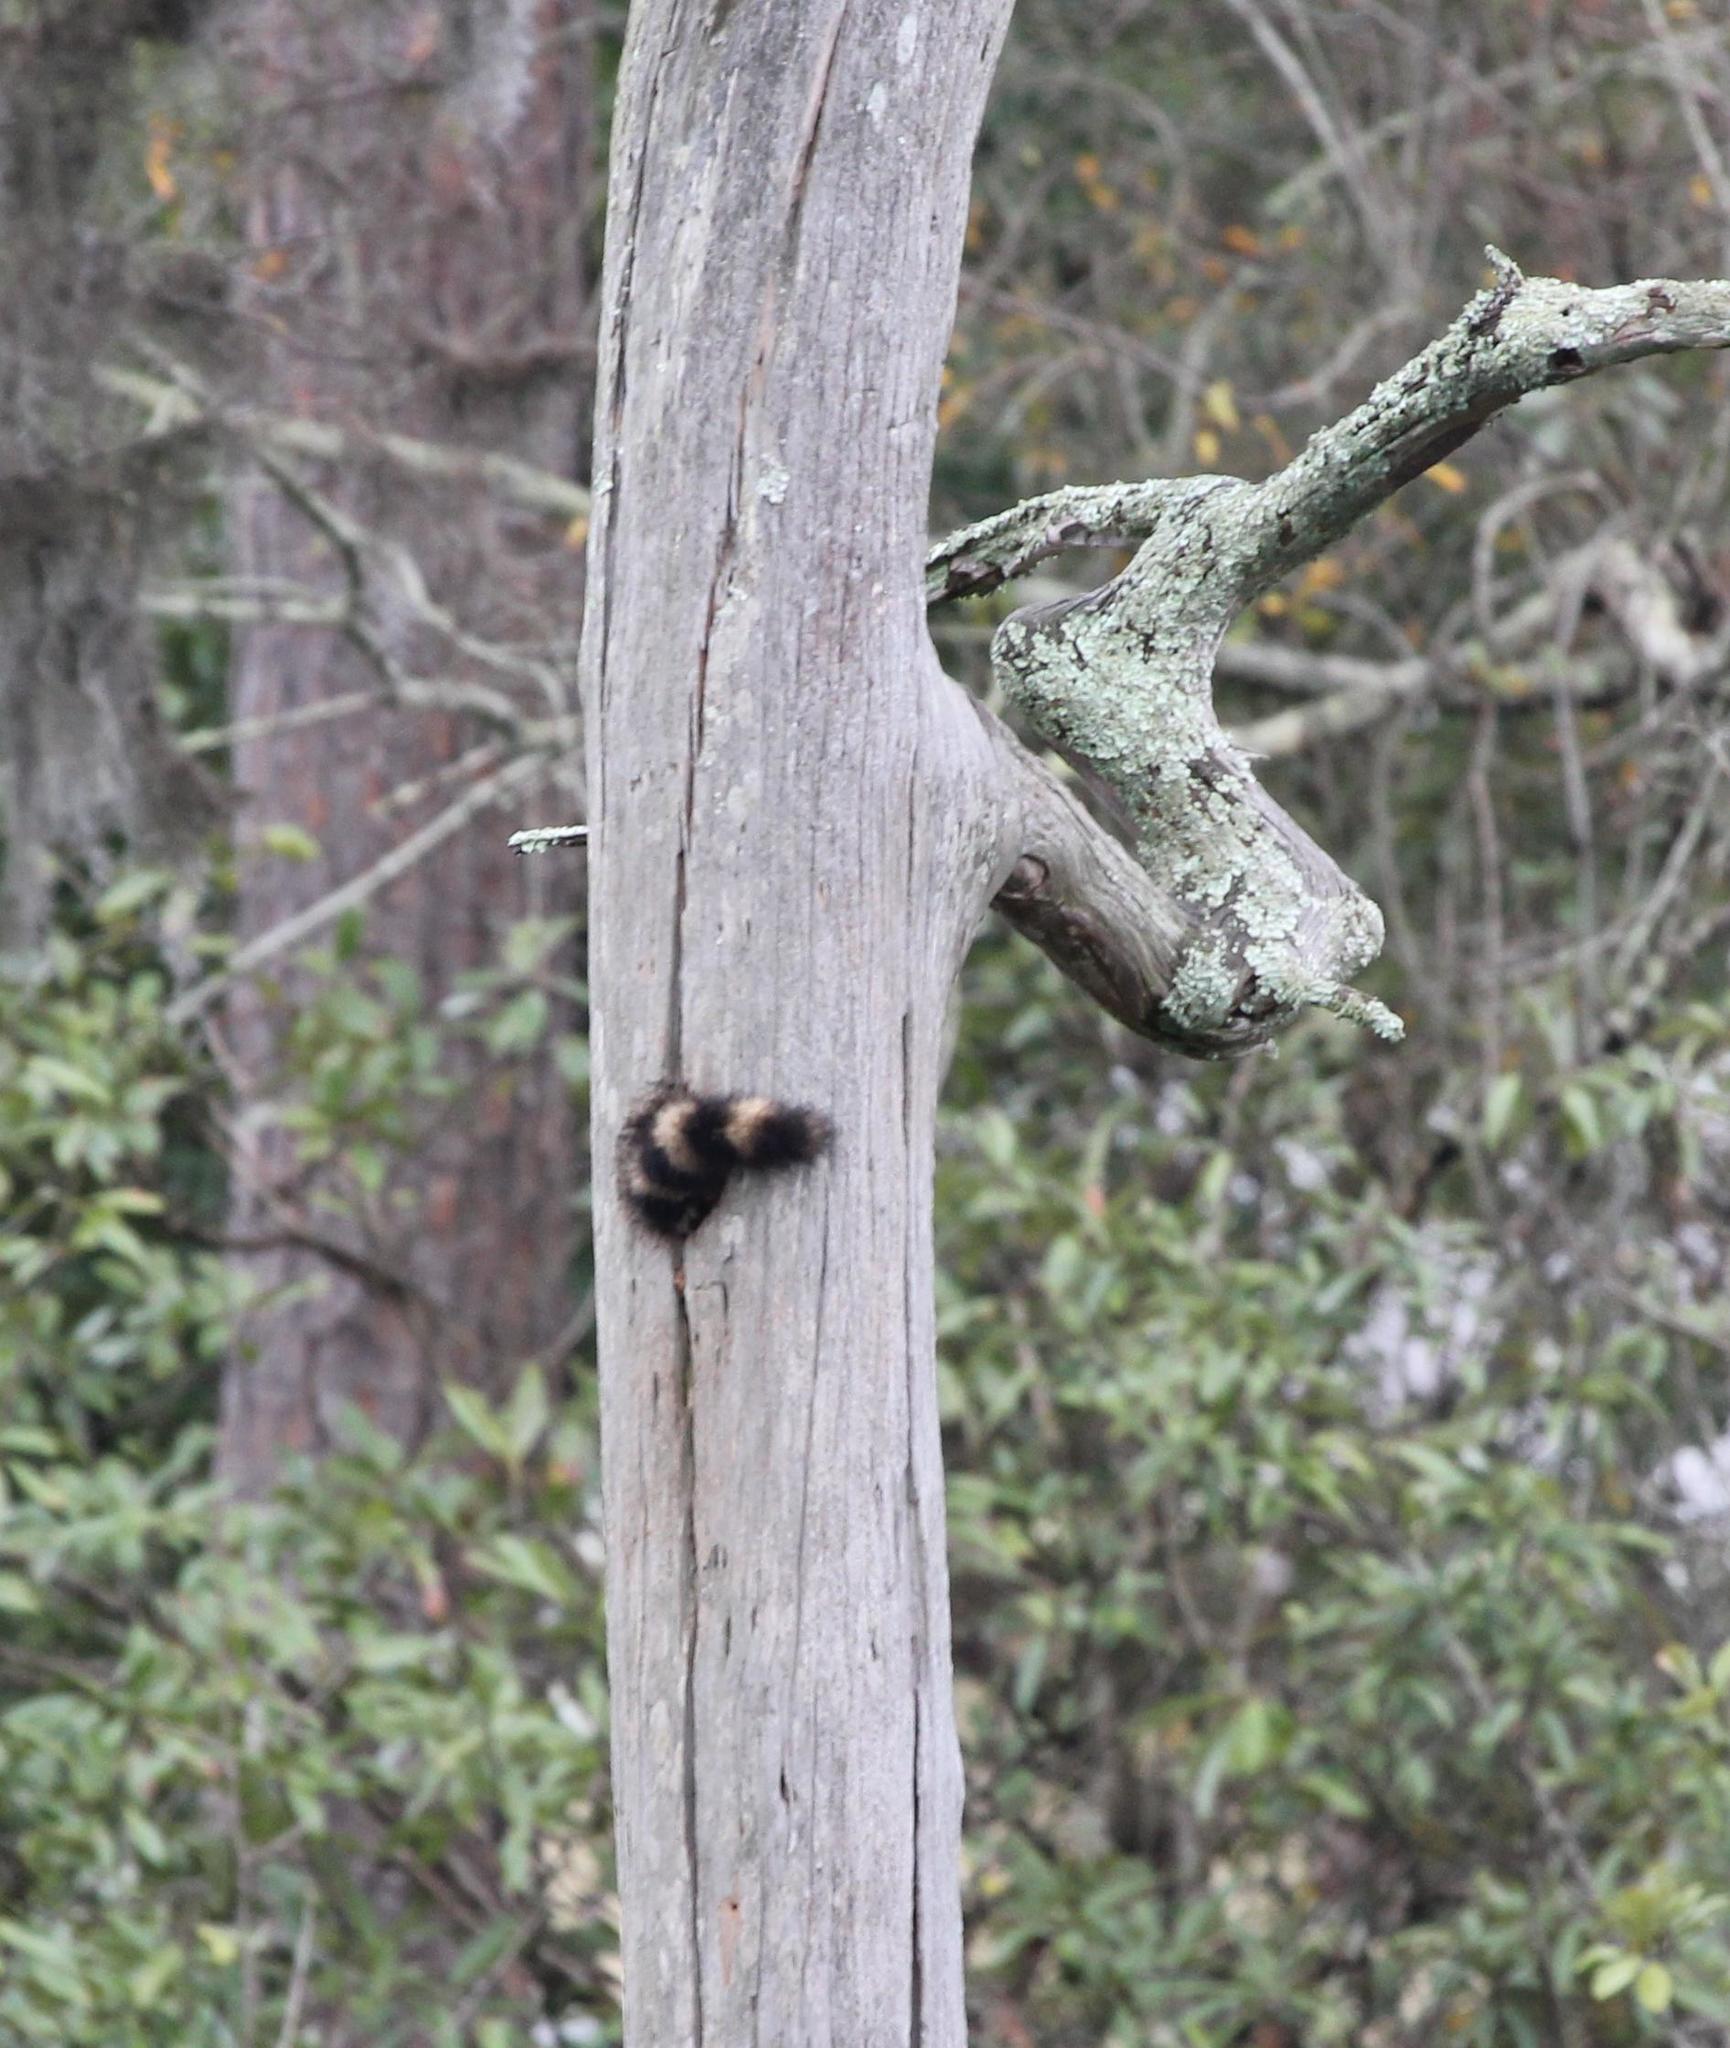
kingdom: Animalia
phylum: Chordata
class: Mammalia
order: Carnivora
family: Procyonidae
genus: Procyon
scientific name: Procyon lotor
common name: Raccoon
